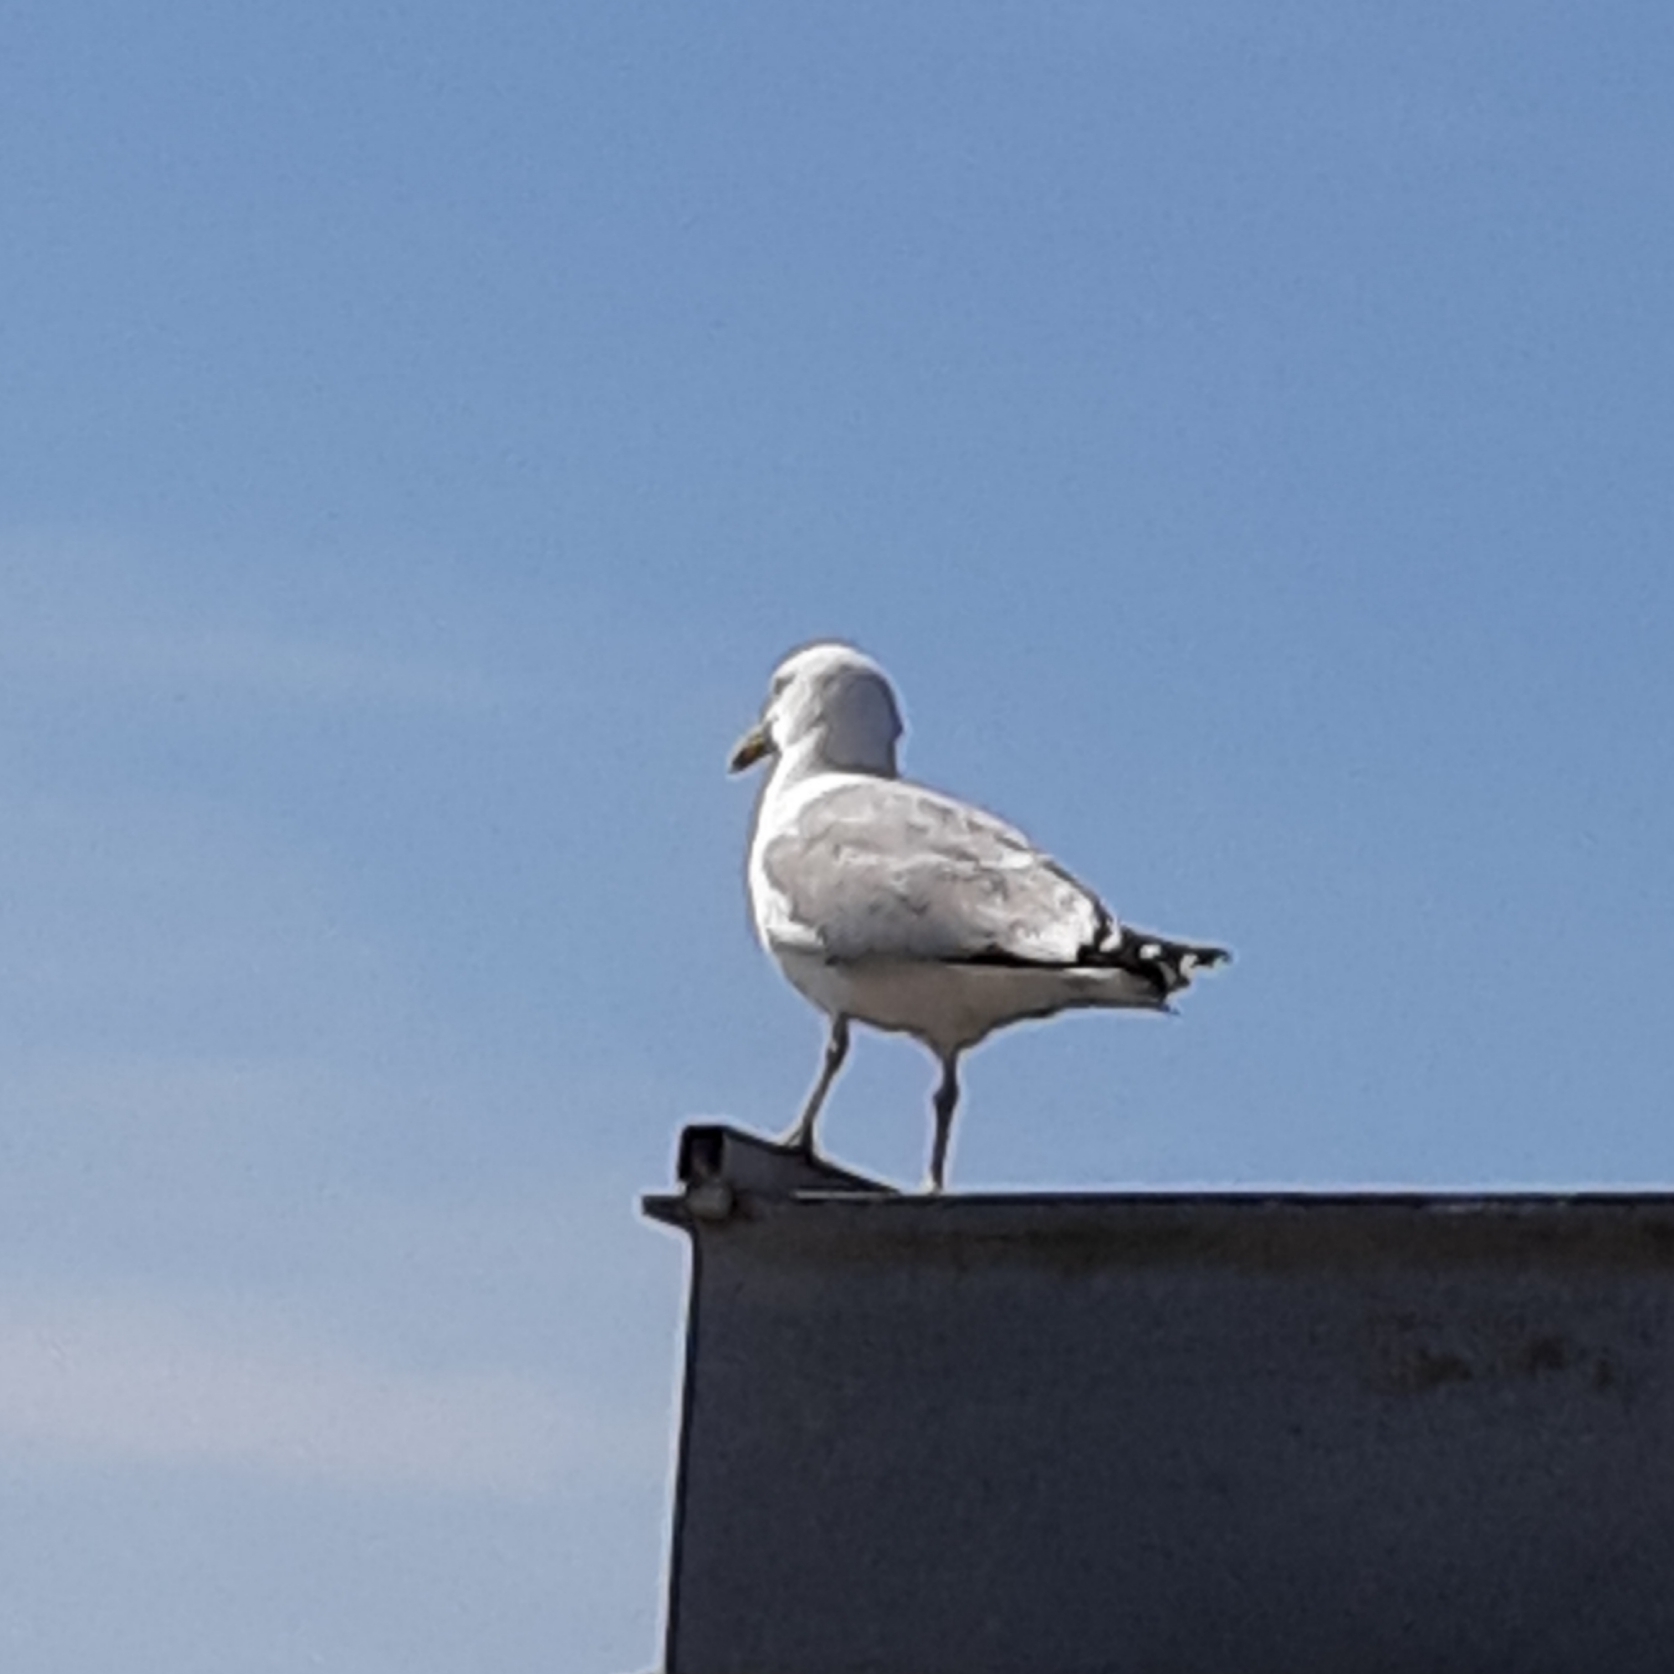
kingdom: Animalia
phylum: Chordata
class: Aves
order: Charadriiformes
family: Laridae
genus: Larus
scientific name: Larus argentatus
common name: Herring gull
